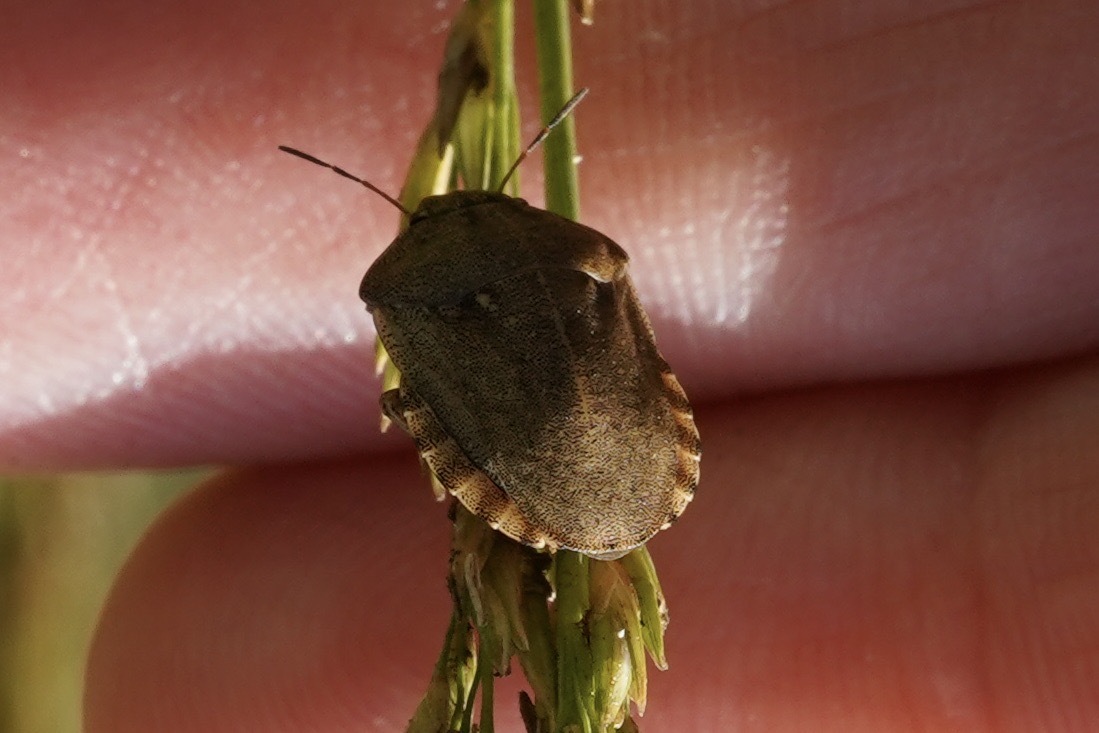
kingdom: Animalia
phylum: Arthropoda
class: Insecta
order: Hemiptera
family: Scutelleridae
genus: Eurygaster
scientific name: Eurygaster testudinaria
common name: Tortoise bug
